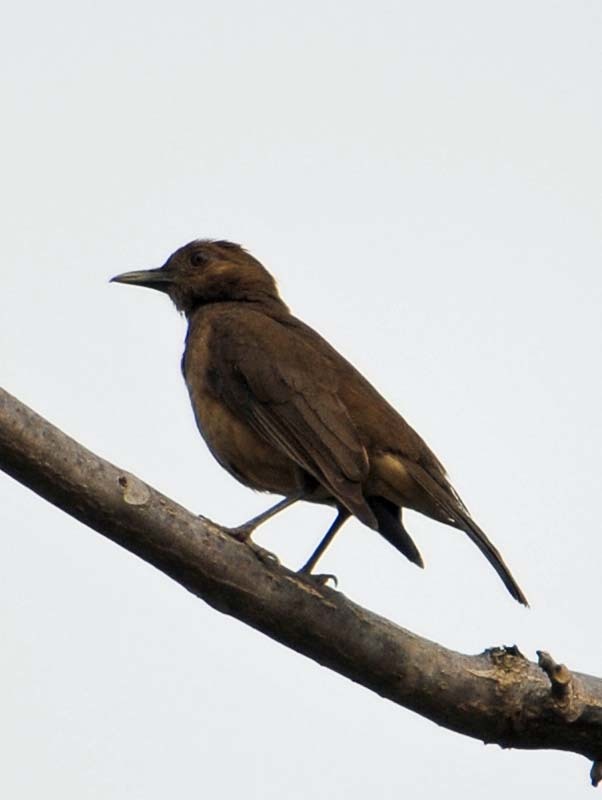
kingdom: Animalia
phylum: Chordata
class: Aves
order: Passeriformes
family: Turdidae
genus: Turdus
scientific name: Turdus grayi
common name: Clay-colored thrush
